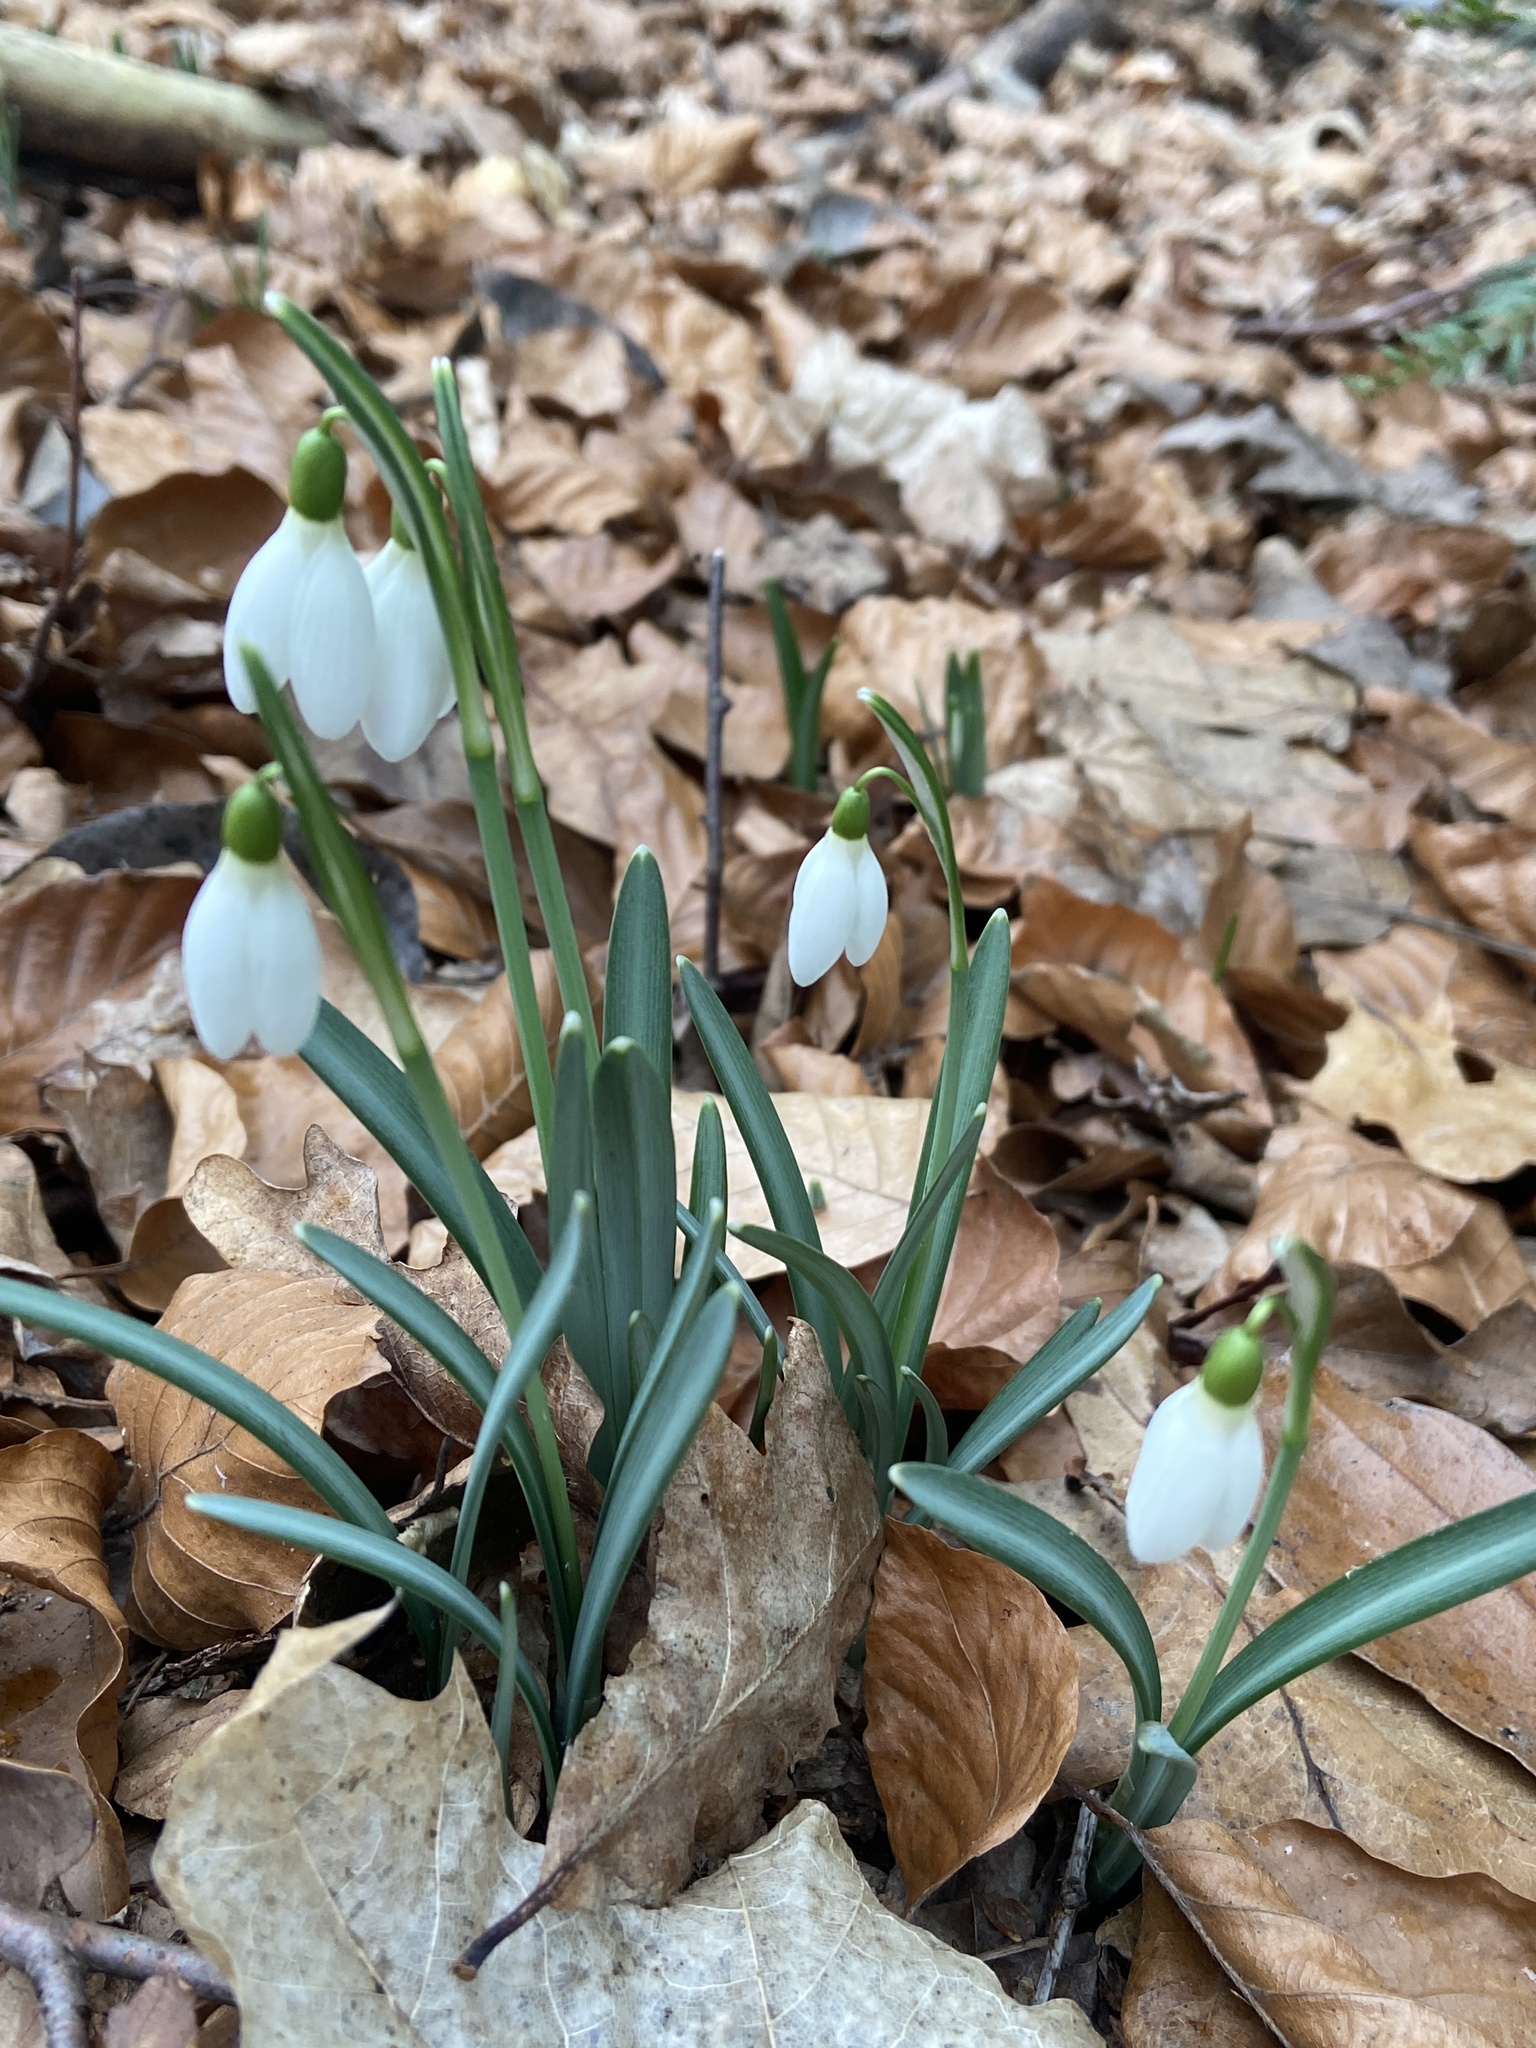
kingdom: Plantae
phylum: Tracheophyta
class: Liliopsida
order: Asparagales
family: Amaryllidaceae
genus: Galanthus
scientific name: Galanthus nivalis
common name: Snowdrop
